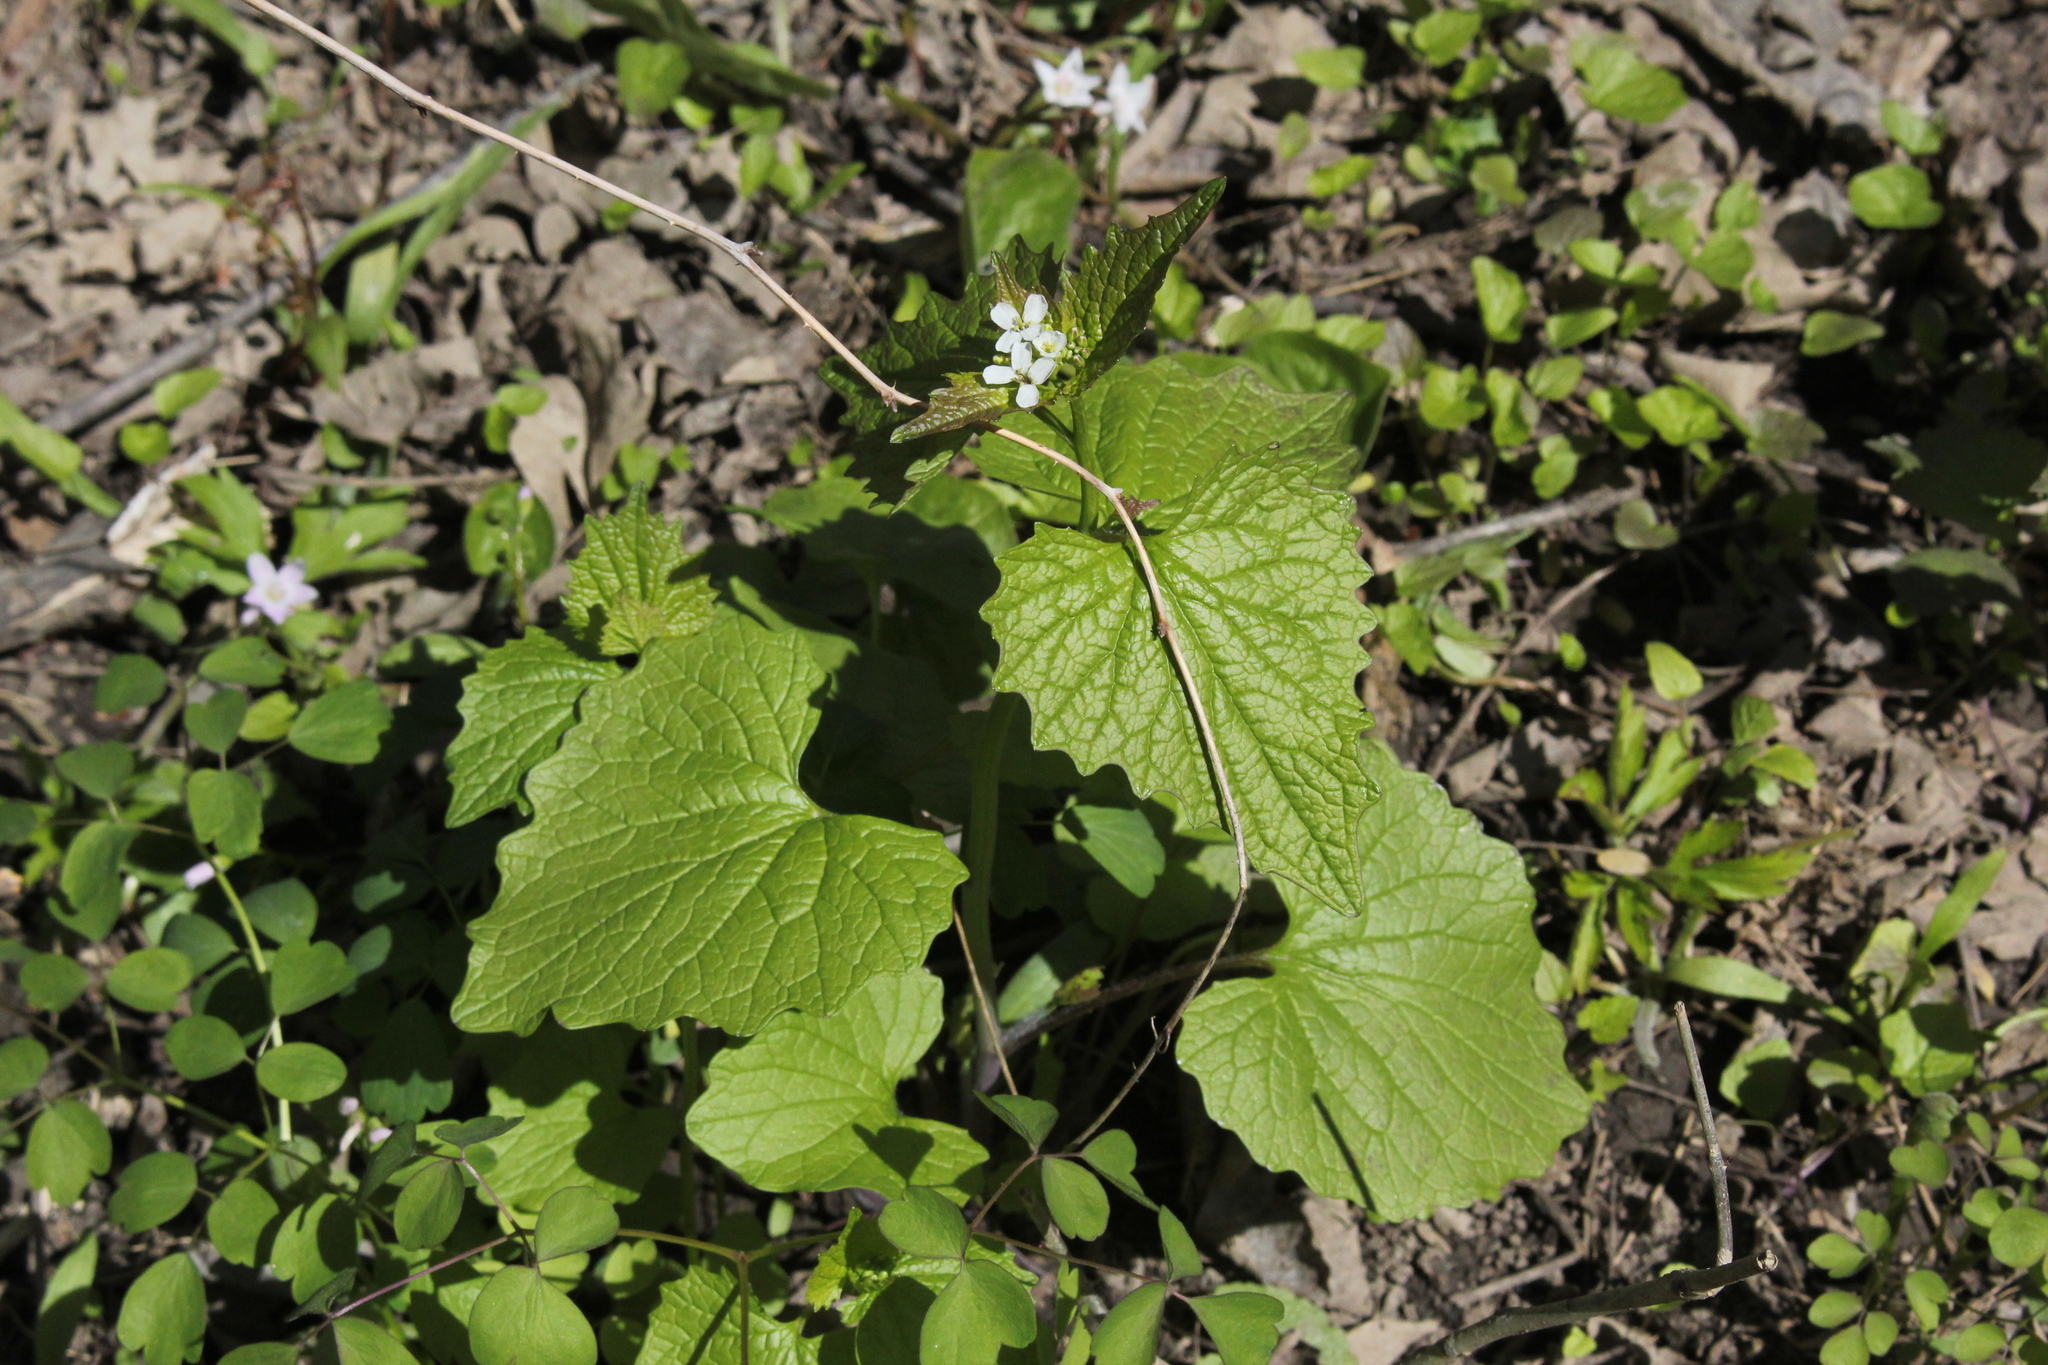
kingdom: Plantae
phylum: Tracheophyta
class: Magnoliopsida
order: Brassicales
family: Brassicaceae
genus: Alliaria
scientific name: Alliaria petiolata
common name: Garlic mustard
